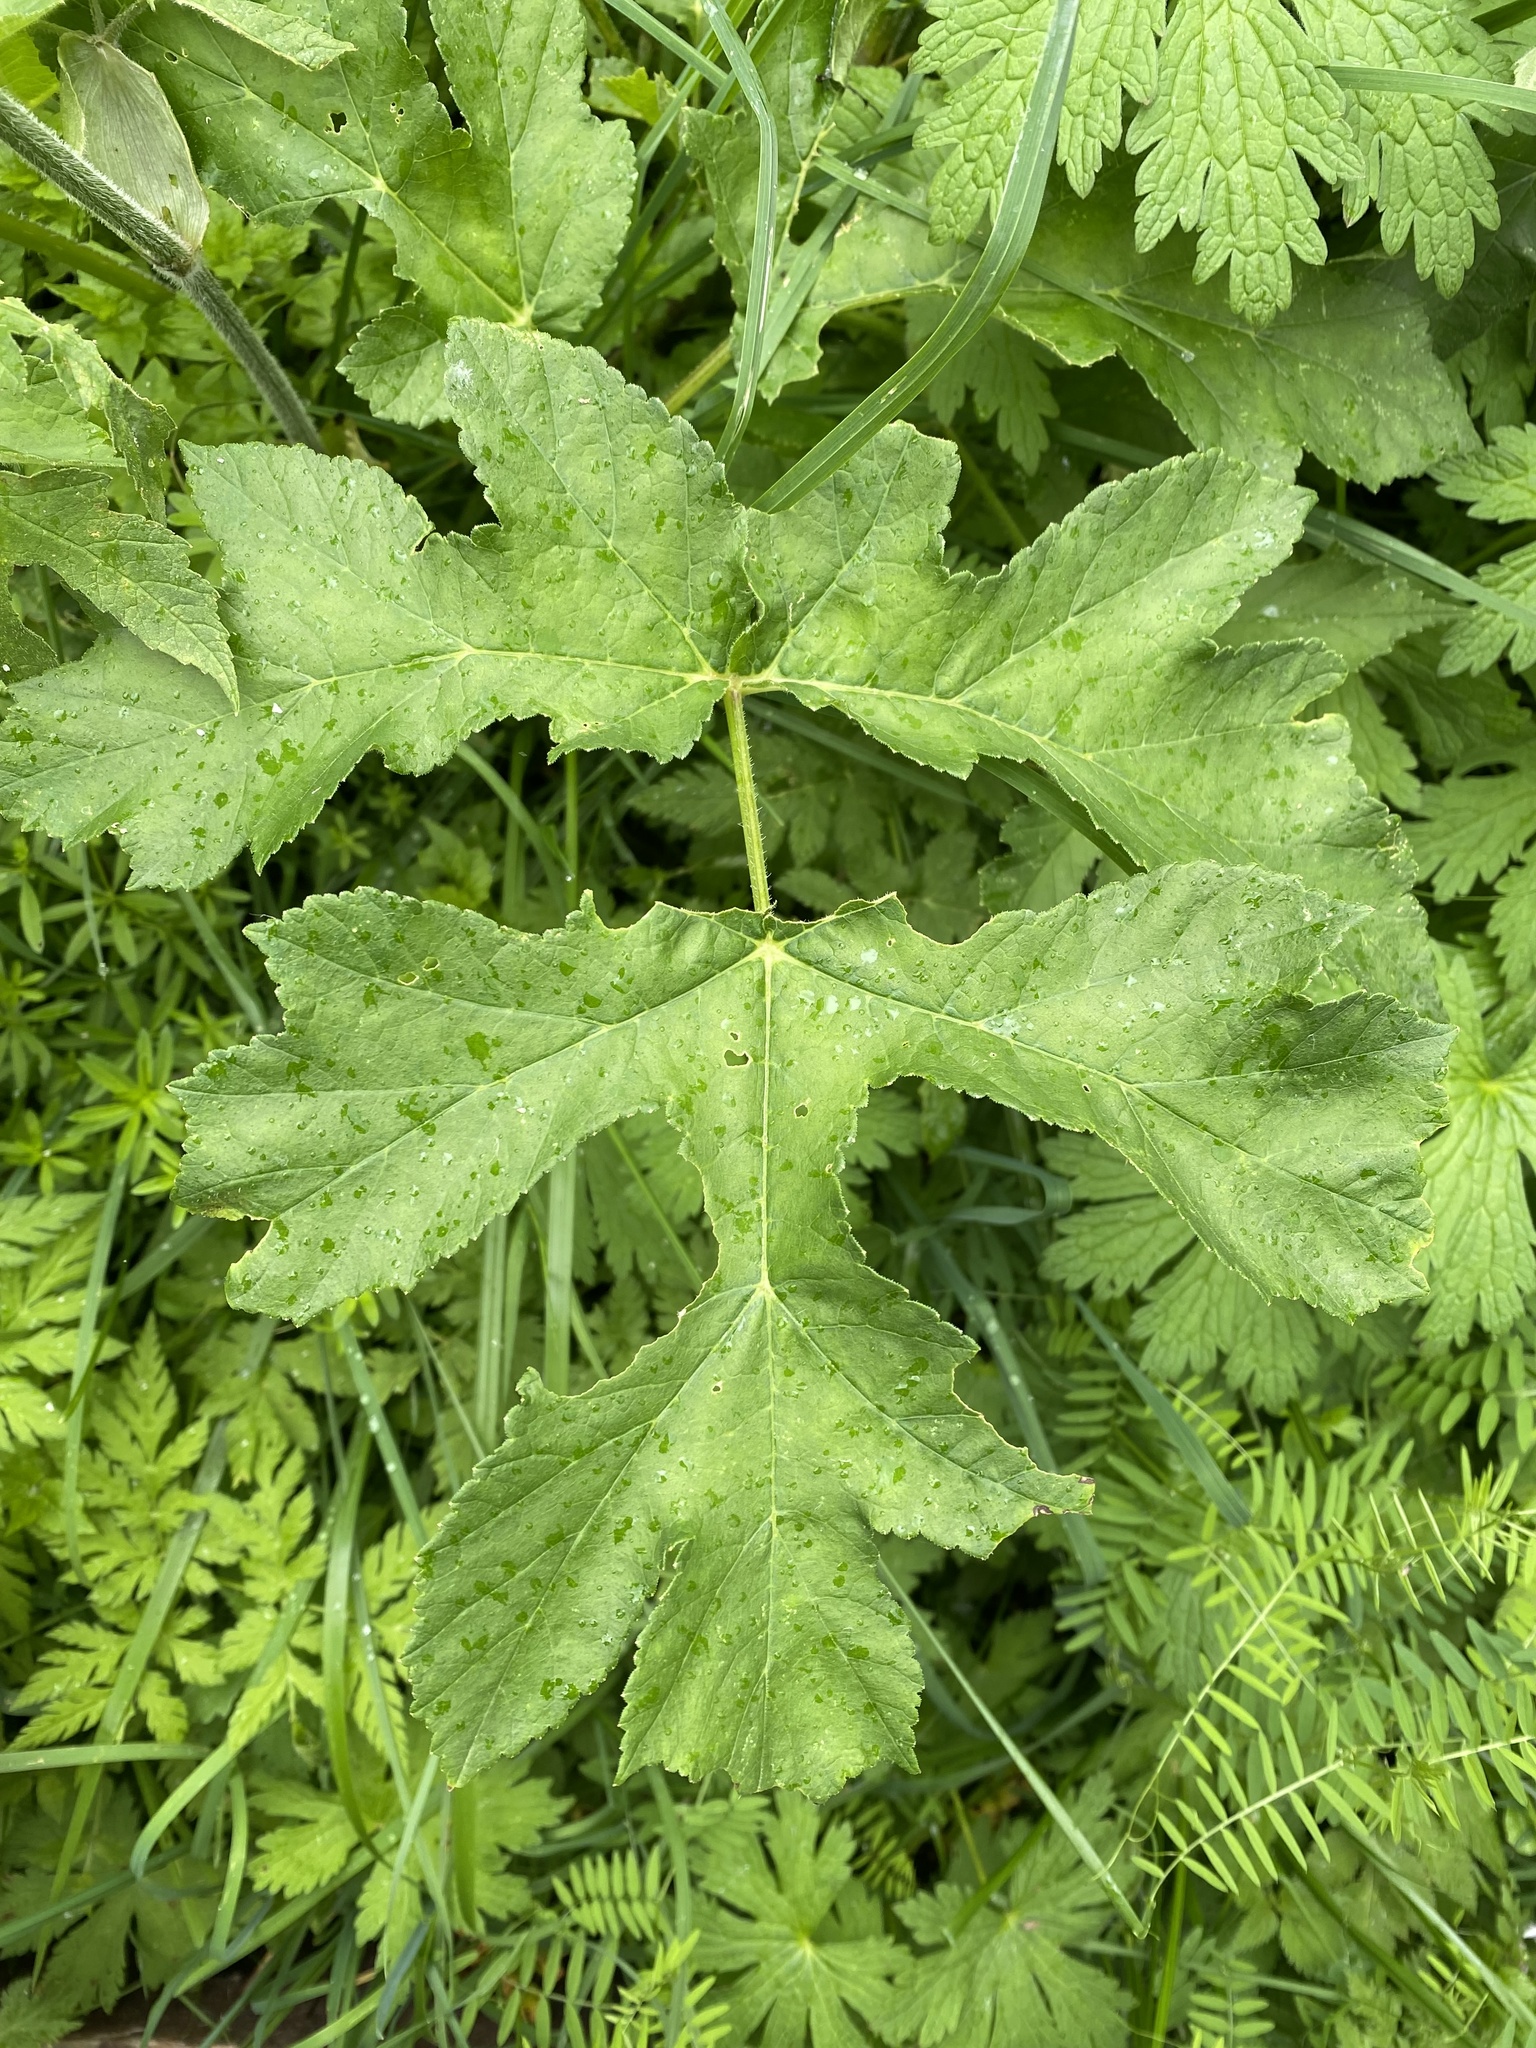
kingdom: Plantae
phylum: Tracheophyta
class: Magnoliopsida
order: Apiales
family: Apiaceae
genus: Heracleum
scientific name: Heracleum sphondylium
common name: Hogweed
